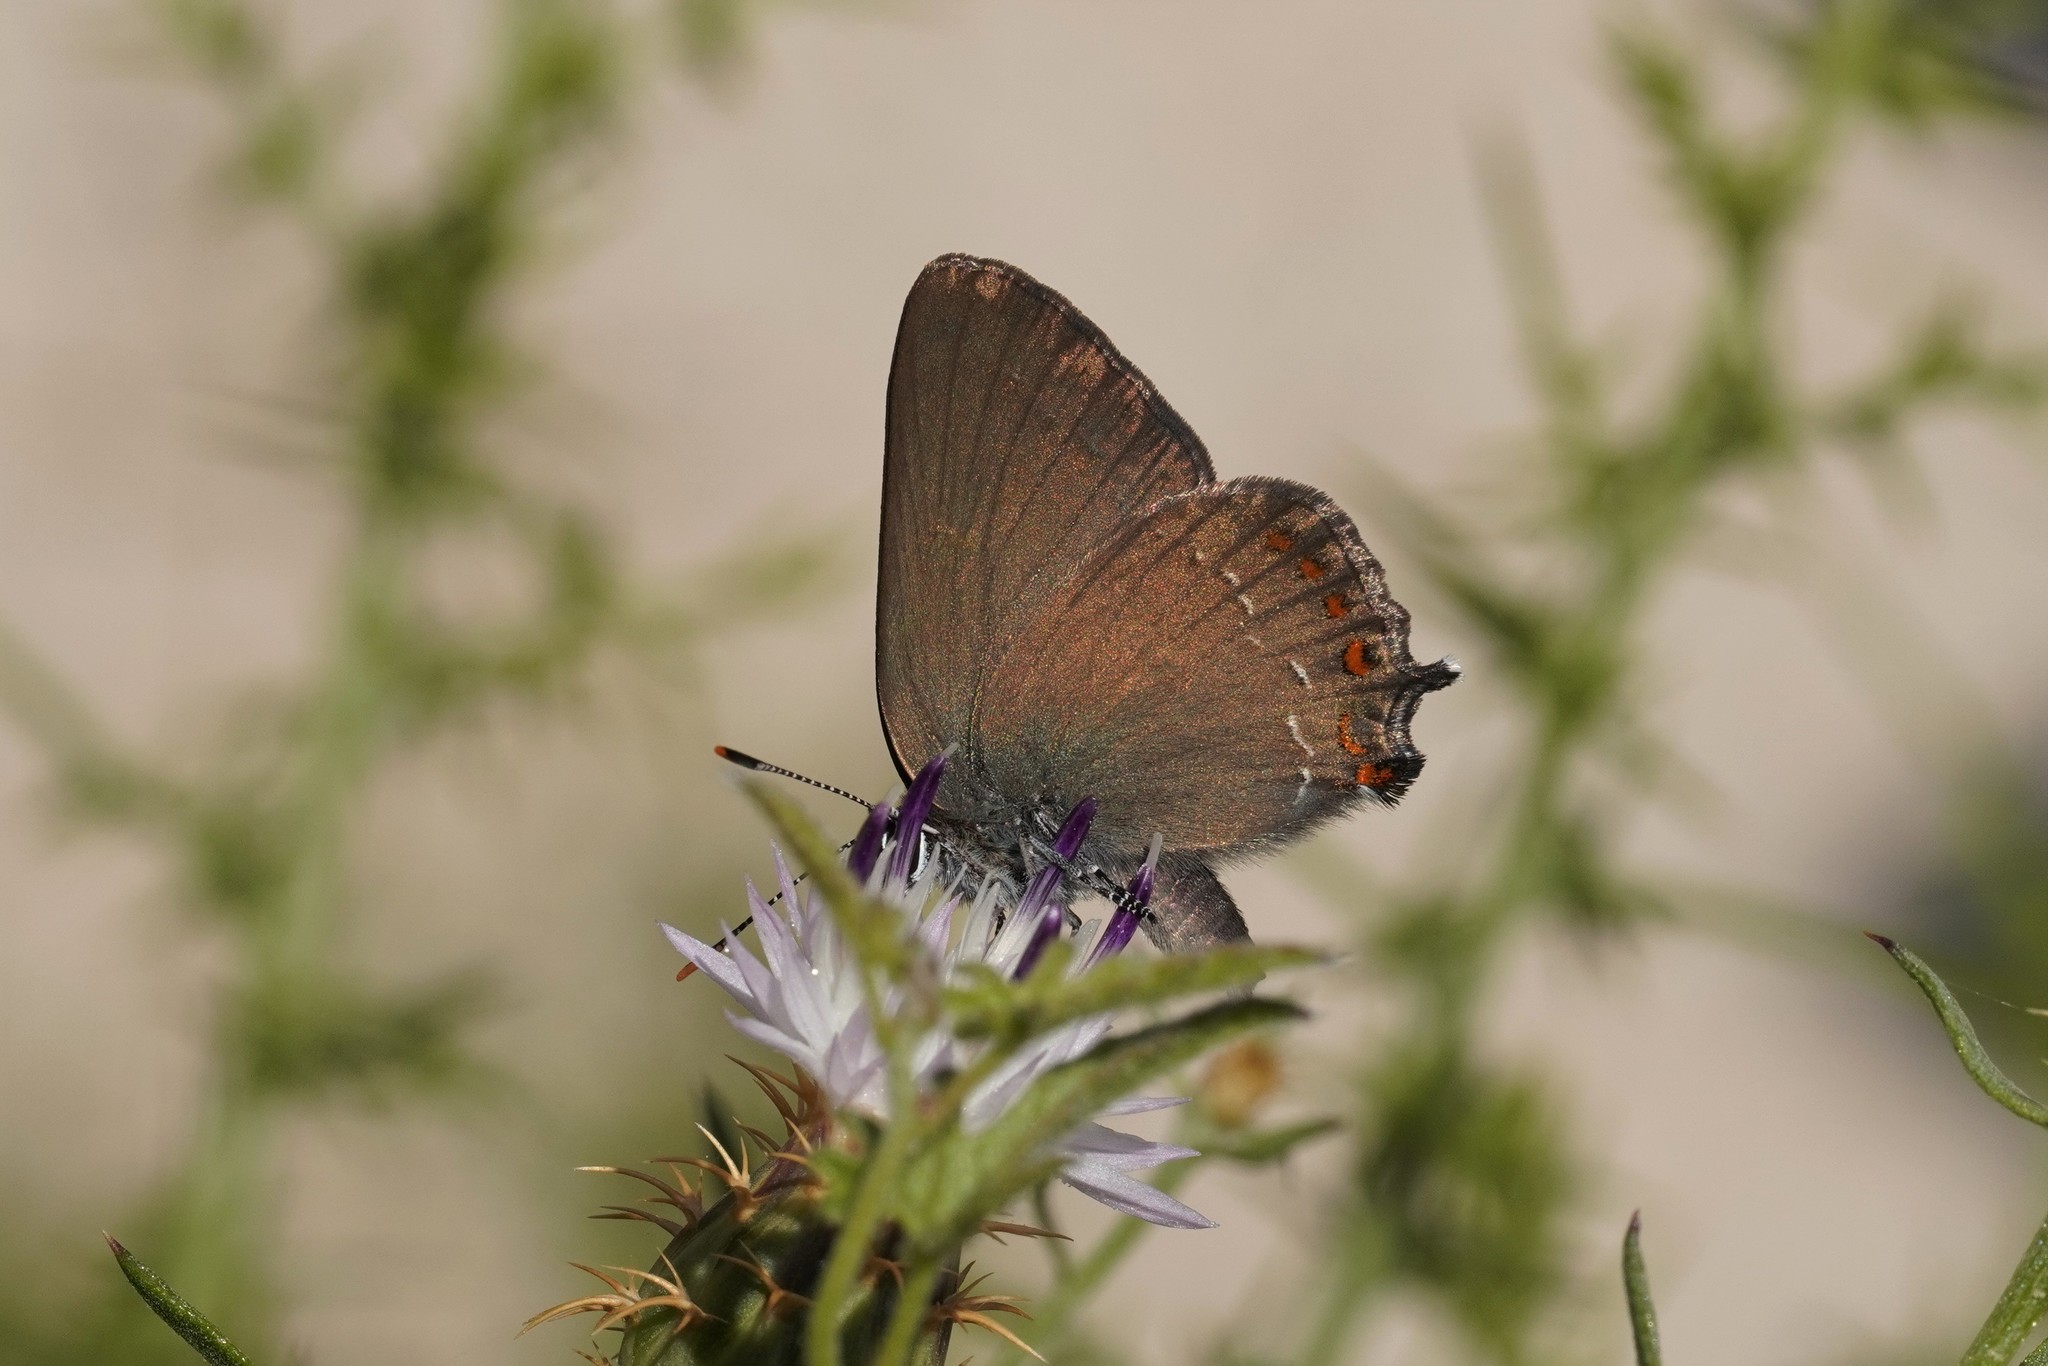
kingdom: Animalia
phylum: Arthropoda
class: Insecta
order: Lepidoptera
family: Lycaenidae
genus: Fixsenia
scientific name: Fixsenia esculi
